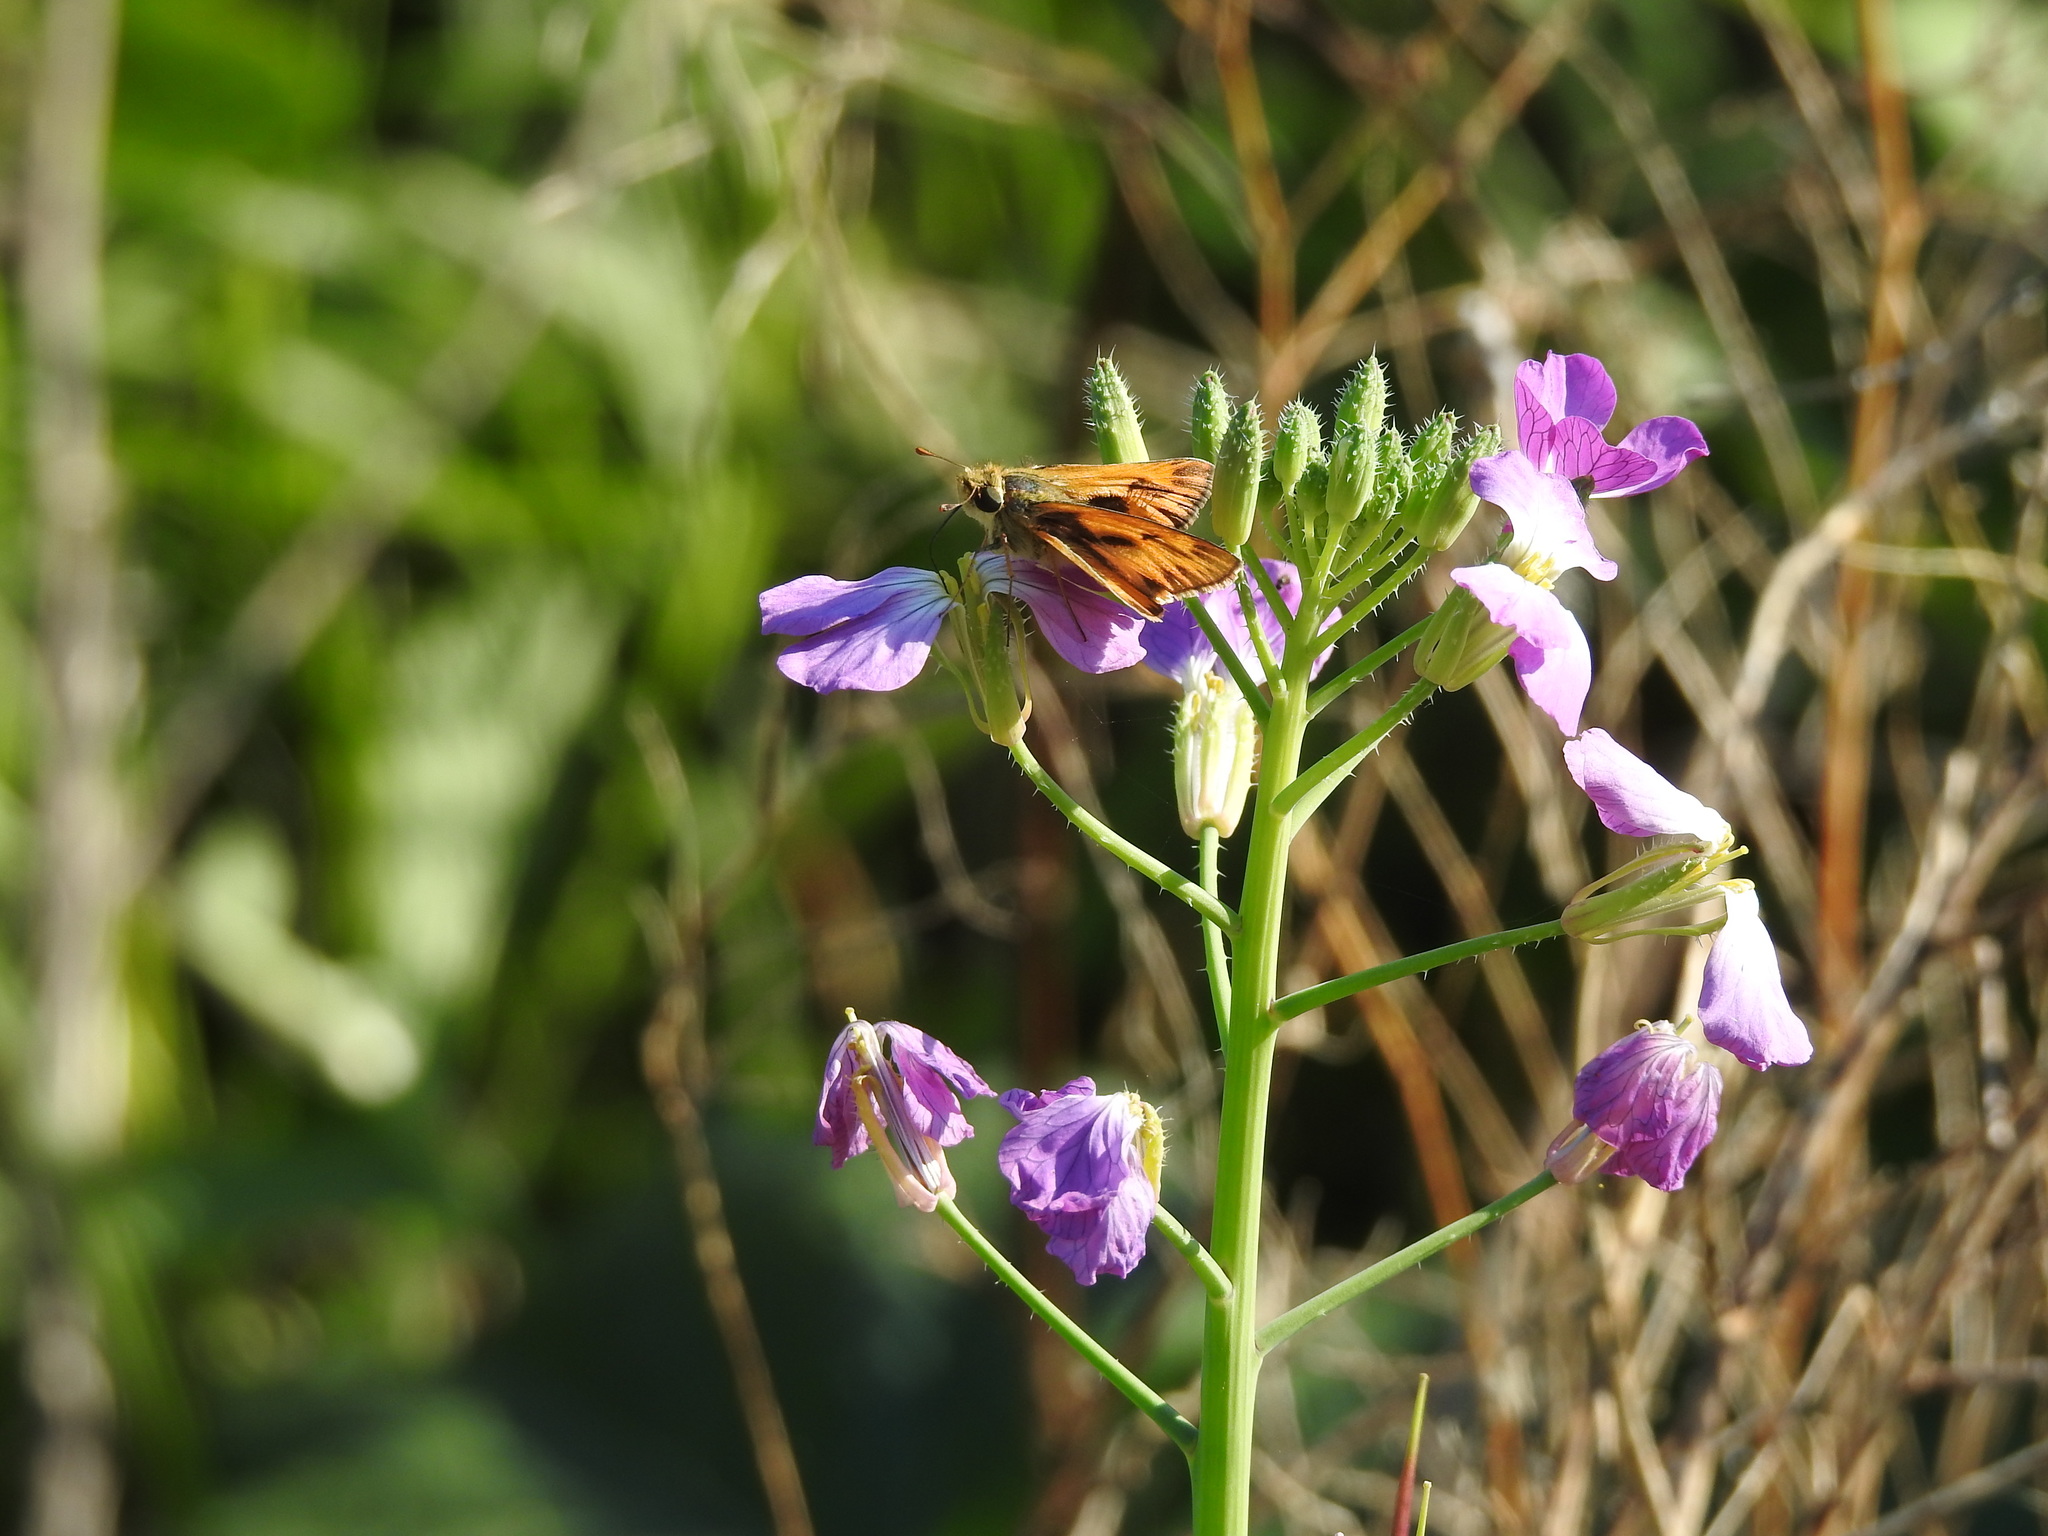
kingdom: Animalia
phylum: Arthropoda
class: Insecta
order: Lepidoptera
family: Hesperiidae
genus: Hylephila
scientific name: Hylephila phyleus
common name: Fiery skipper
